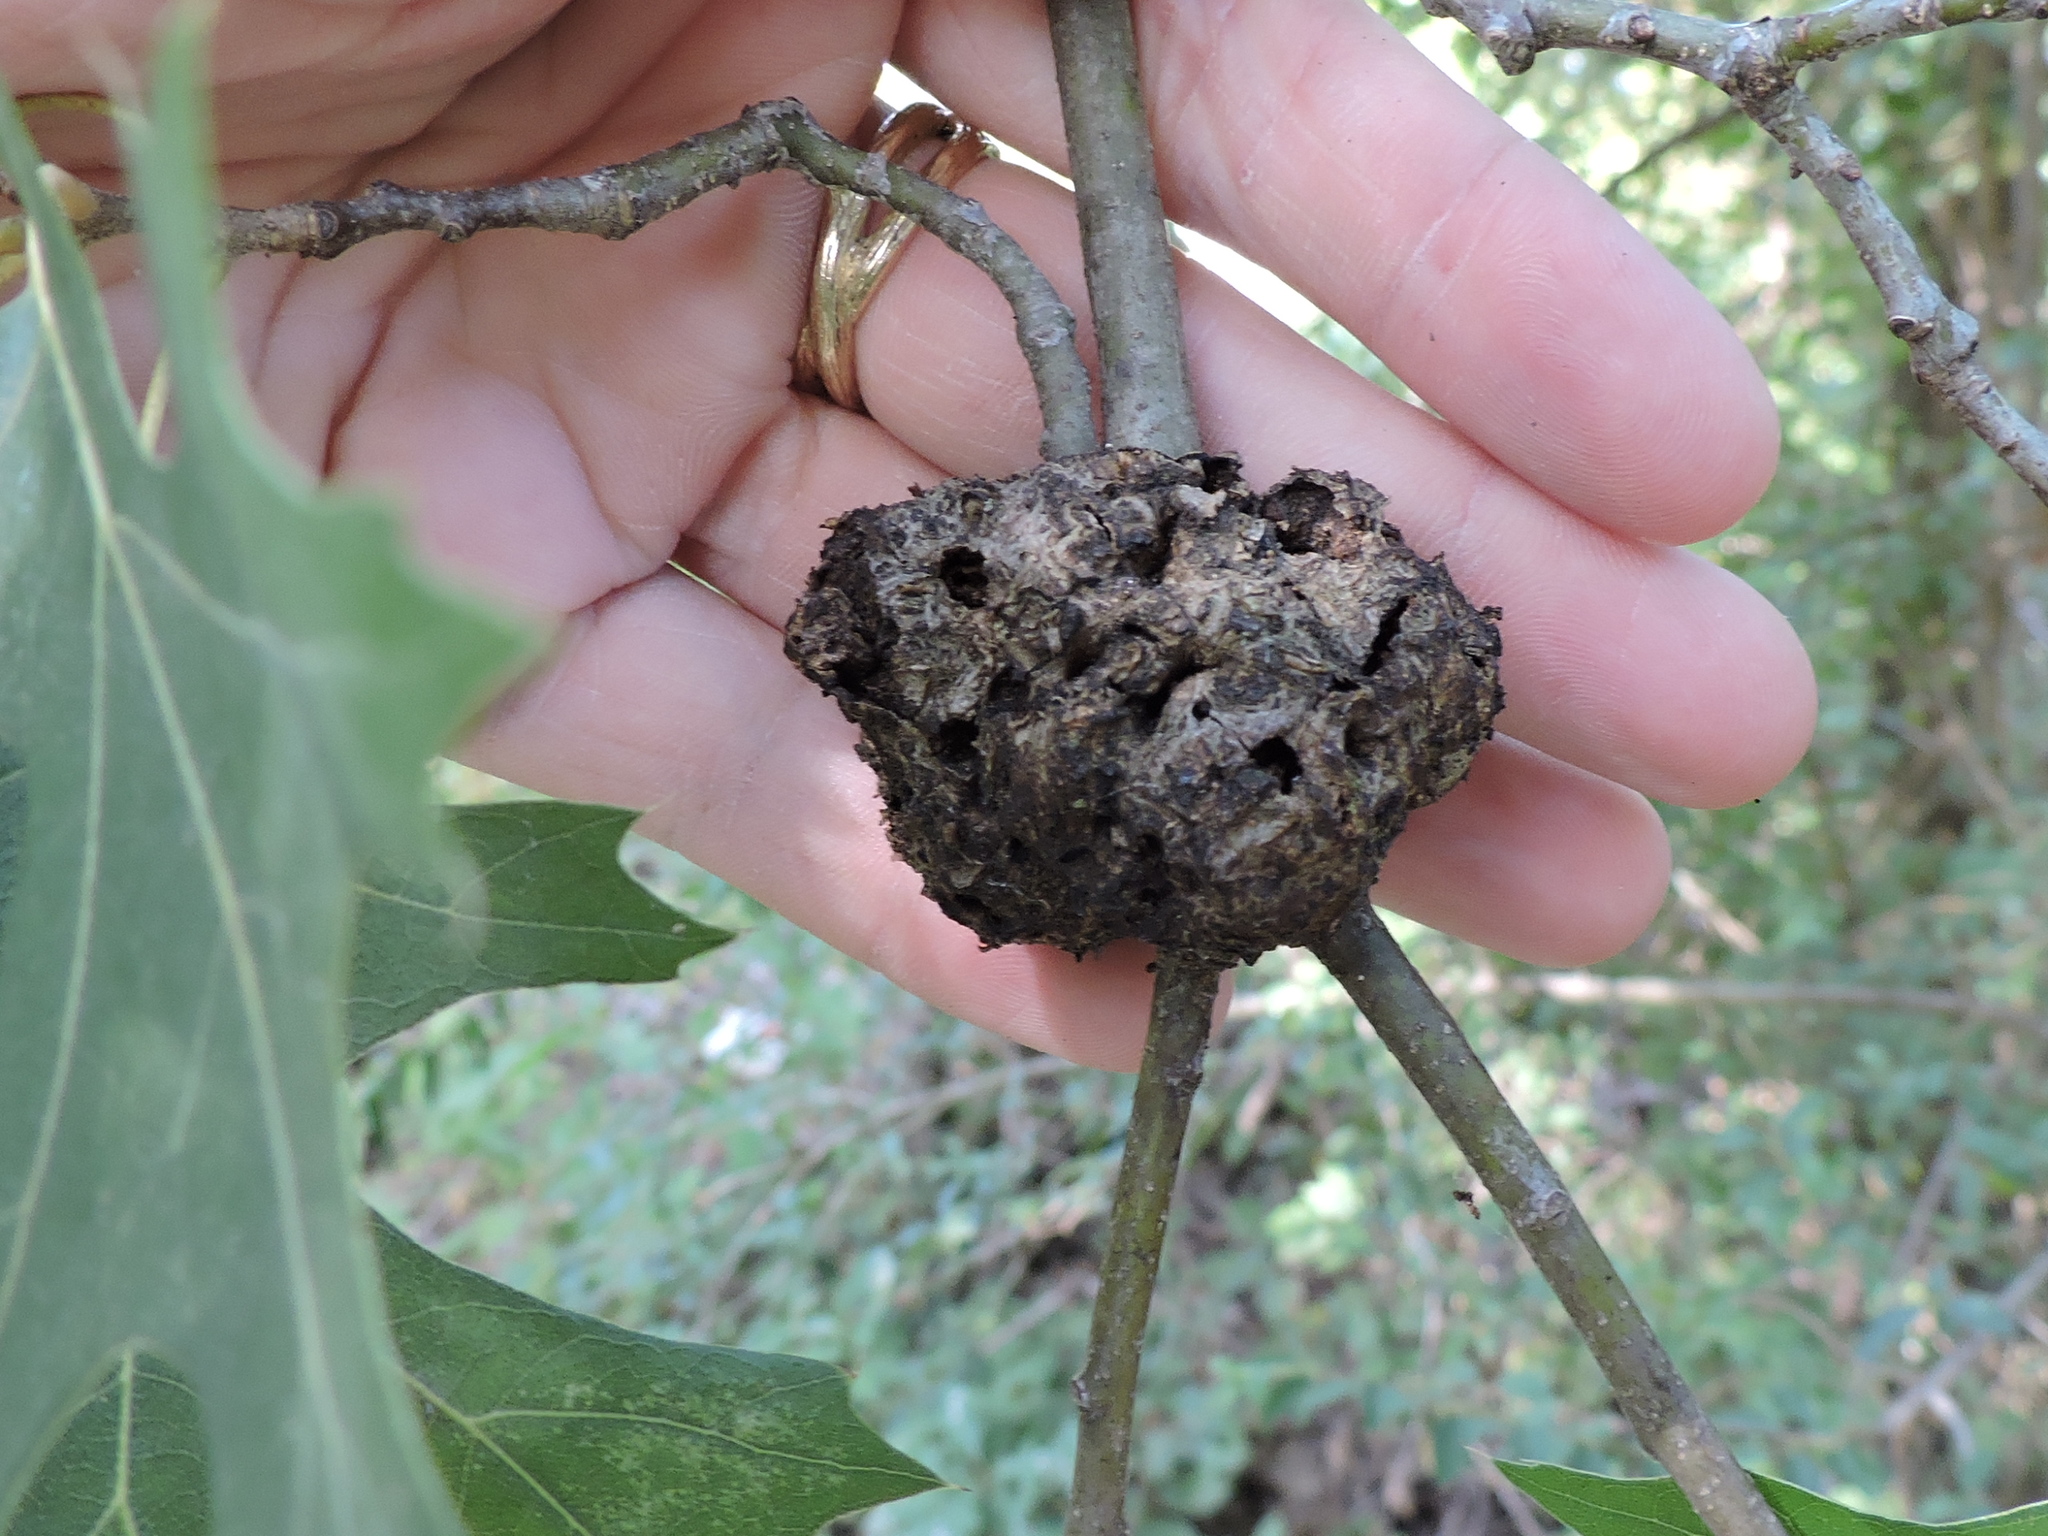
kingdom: Animalia
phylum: Arthropoda
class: Insecta
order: Hymenoptera
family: Cynipidae
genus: Callirhytis
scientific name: Callirhytis
